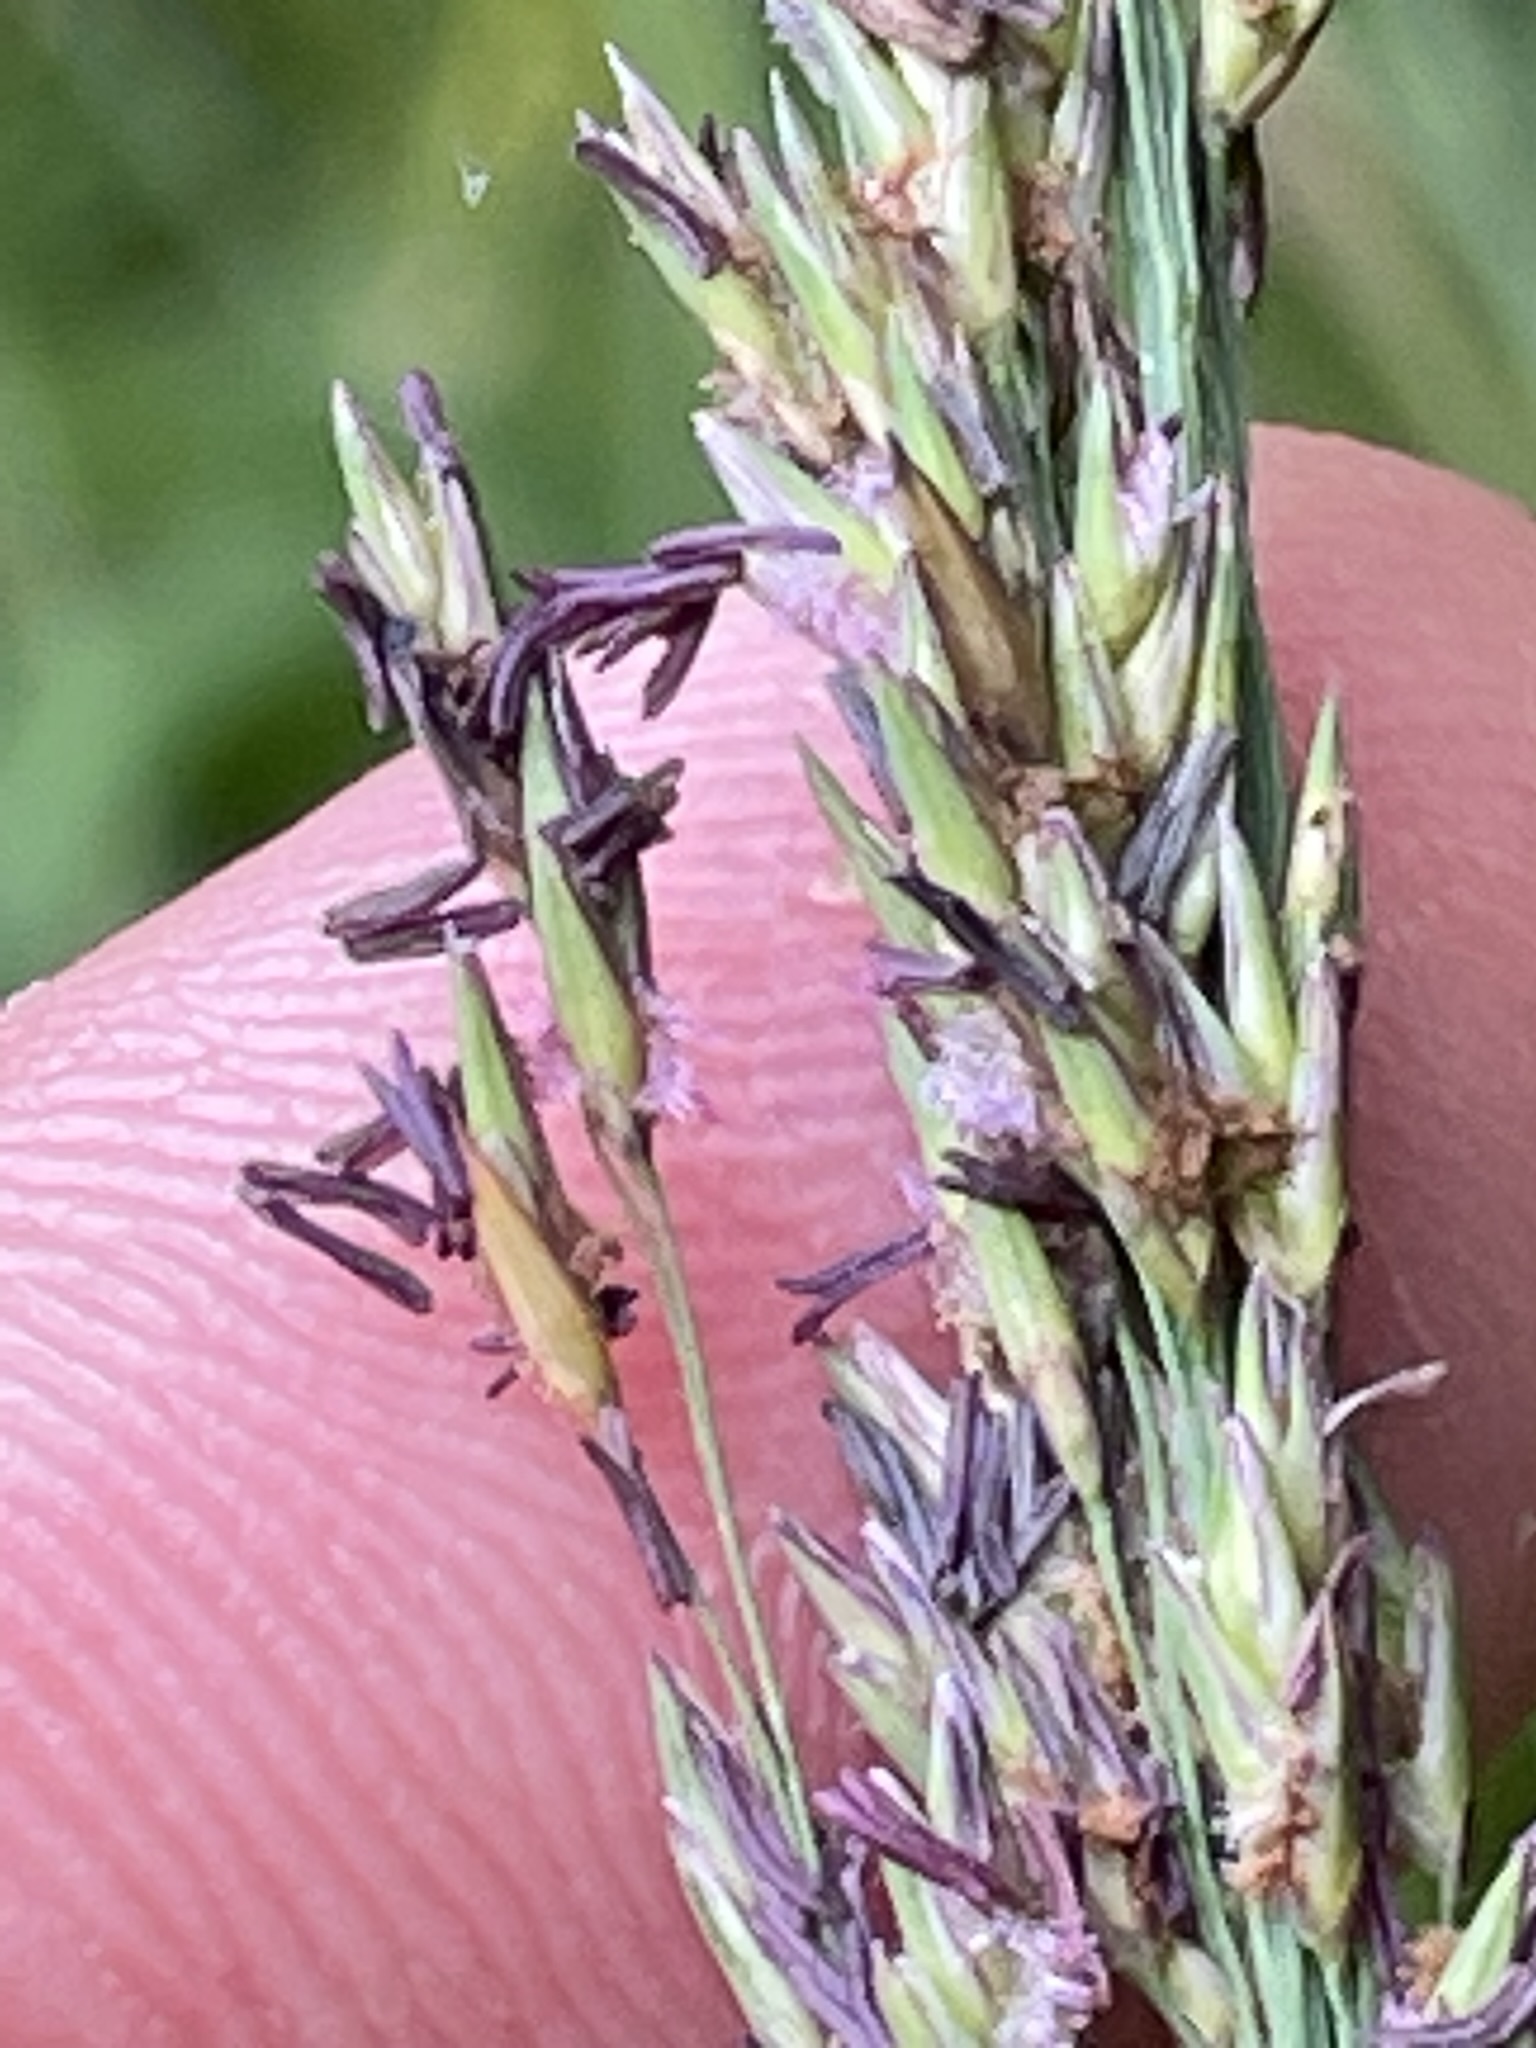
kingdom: Plantae
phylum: Tracheophyta
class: Liliopsida
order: Poales
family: Poaceae
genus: Molinia
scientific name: Molinia caerulea
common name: Purple moor-grass
